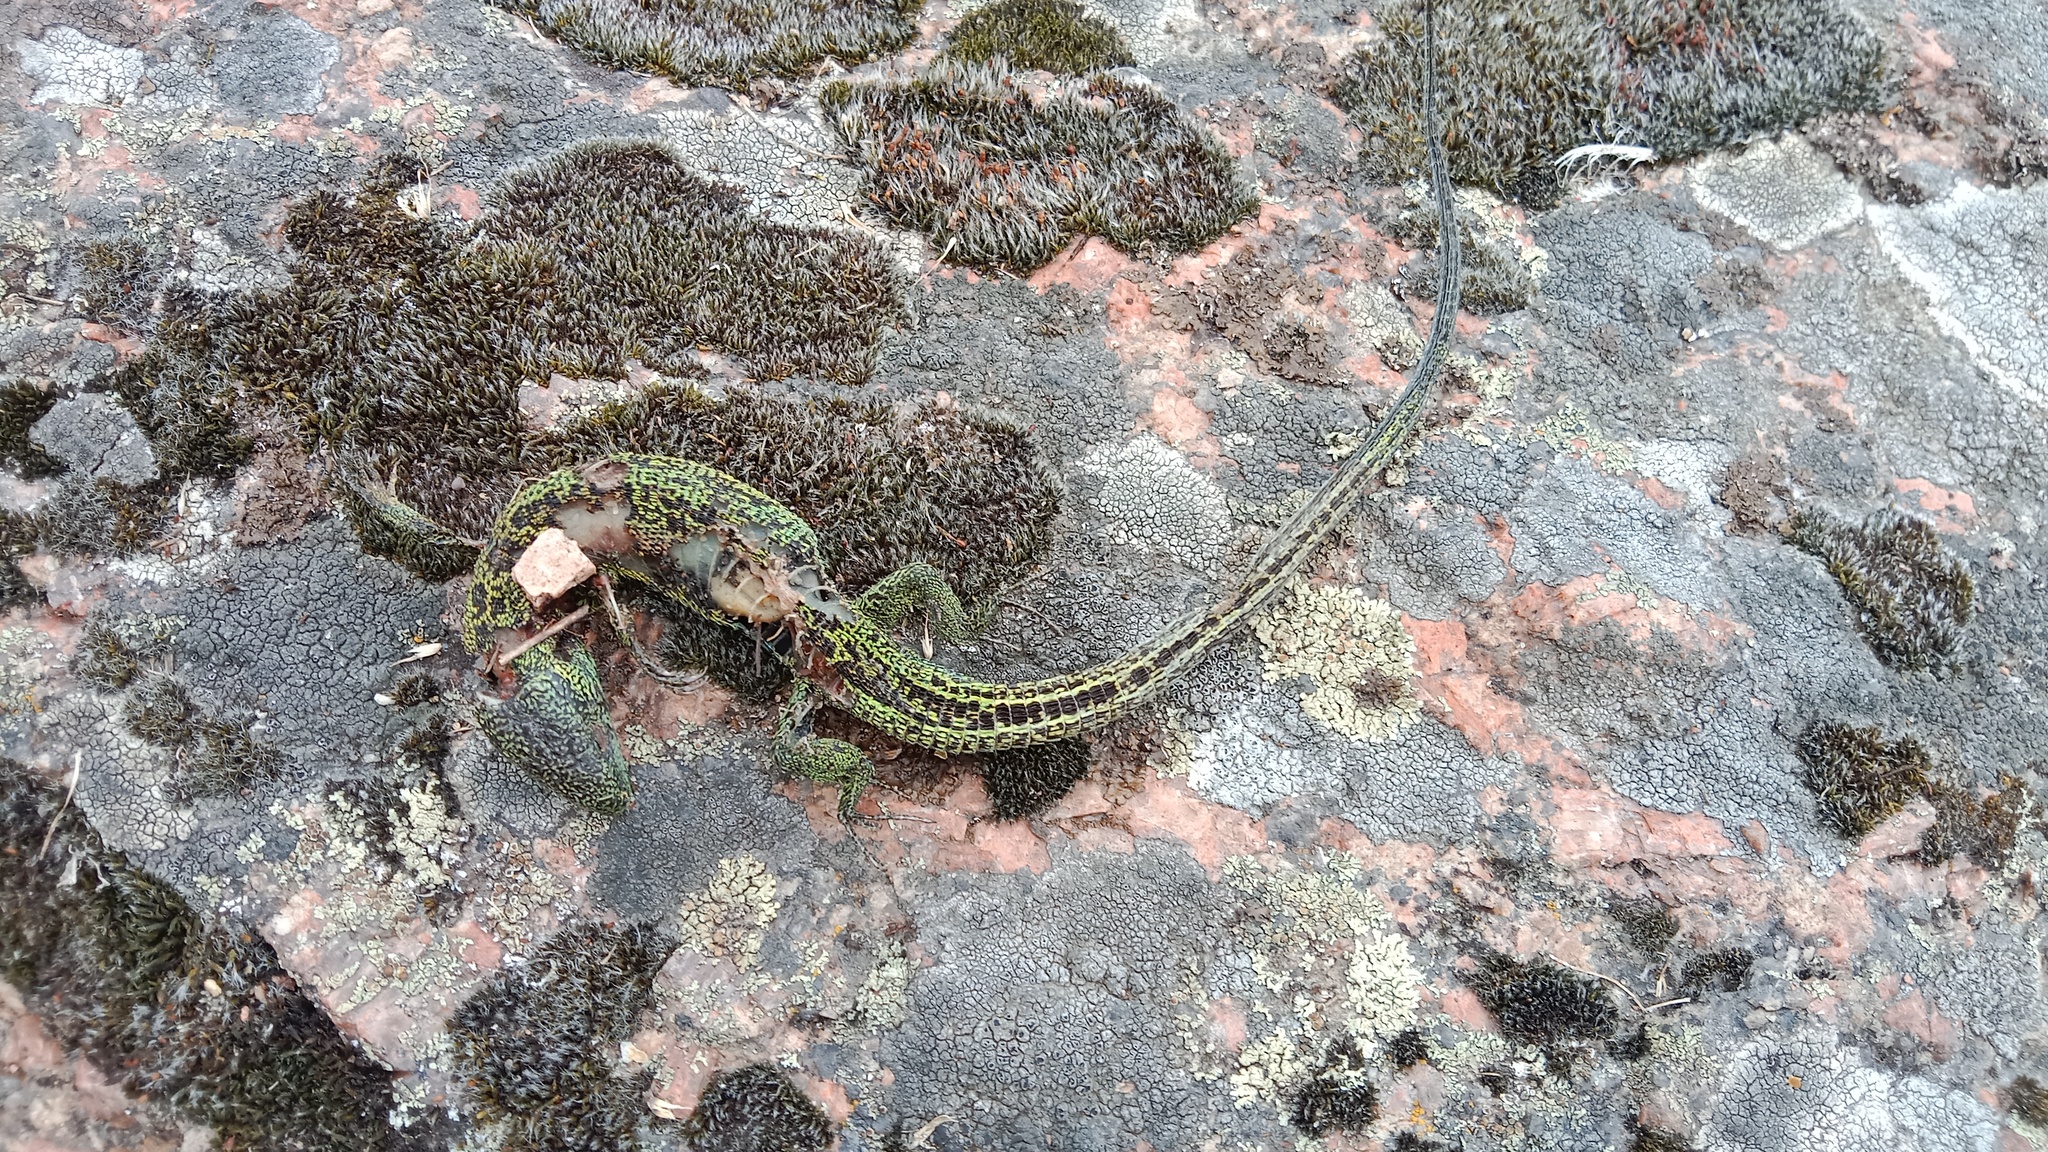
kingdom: Animalia
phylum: Chordata
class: Squamata
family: Lacertidae
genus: Lacerta
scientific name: Lacerta agilis
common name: Sand lizard
